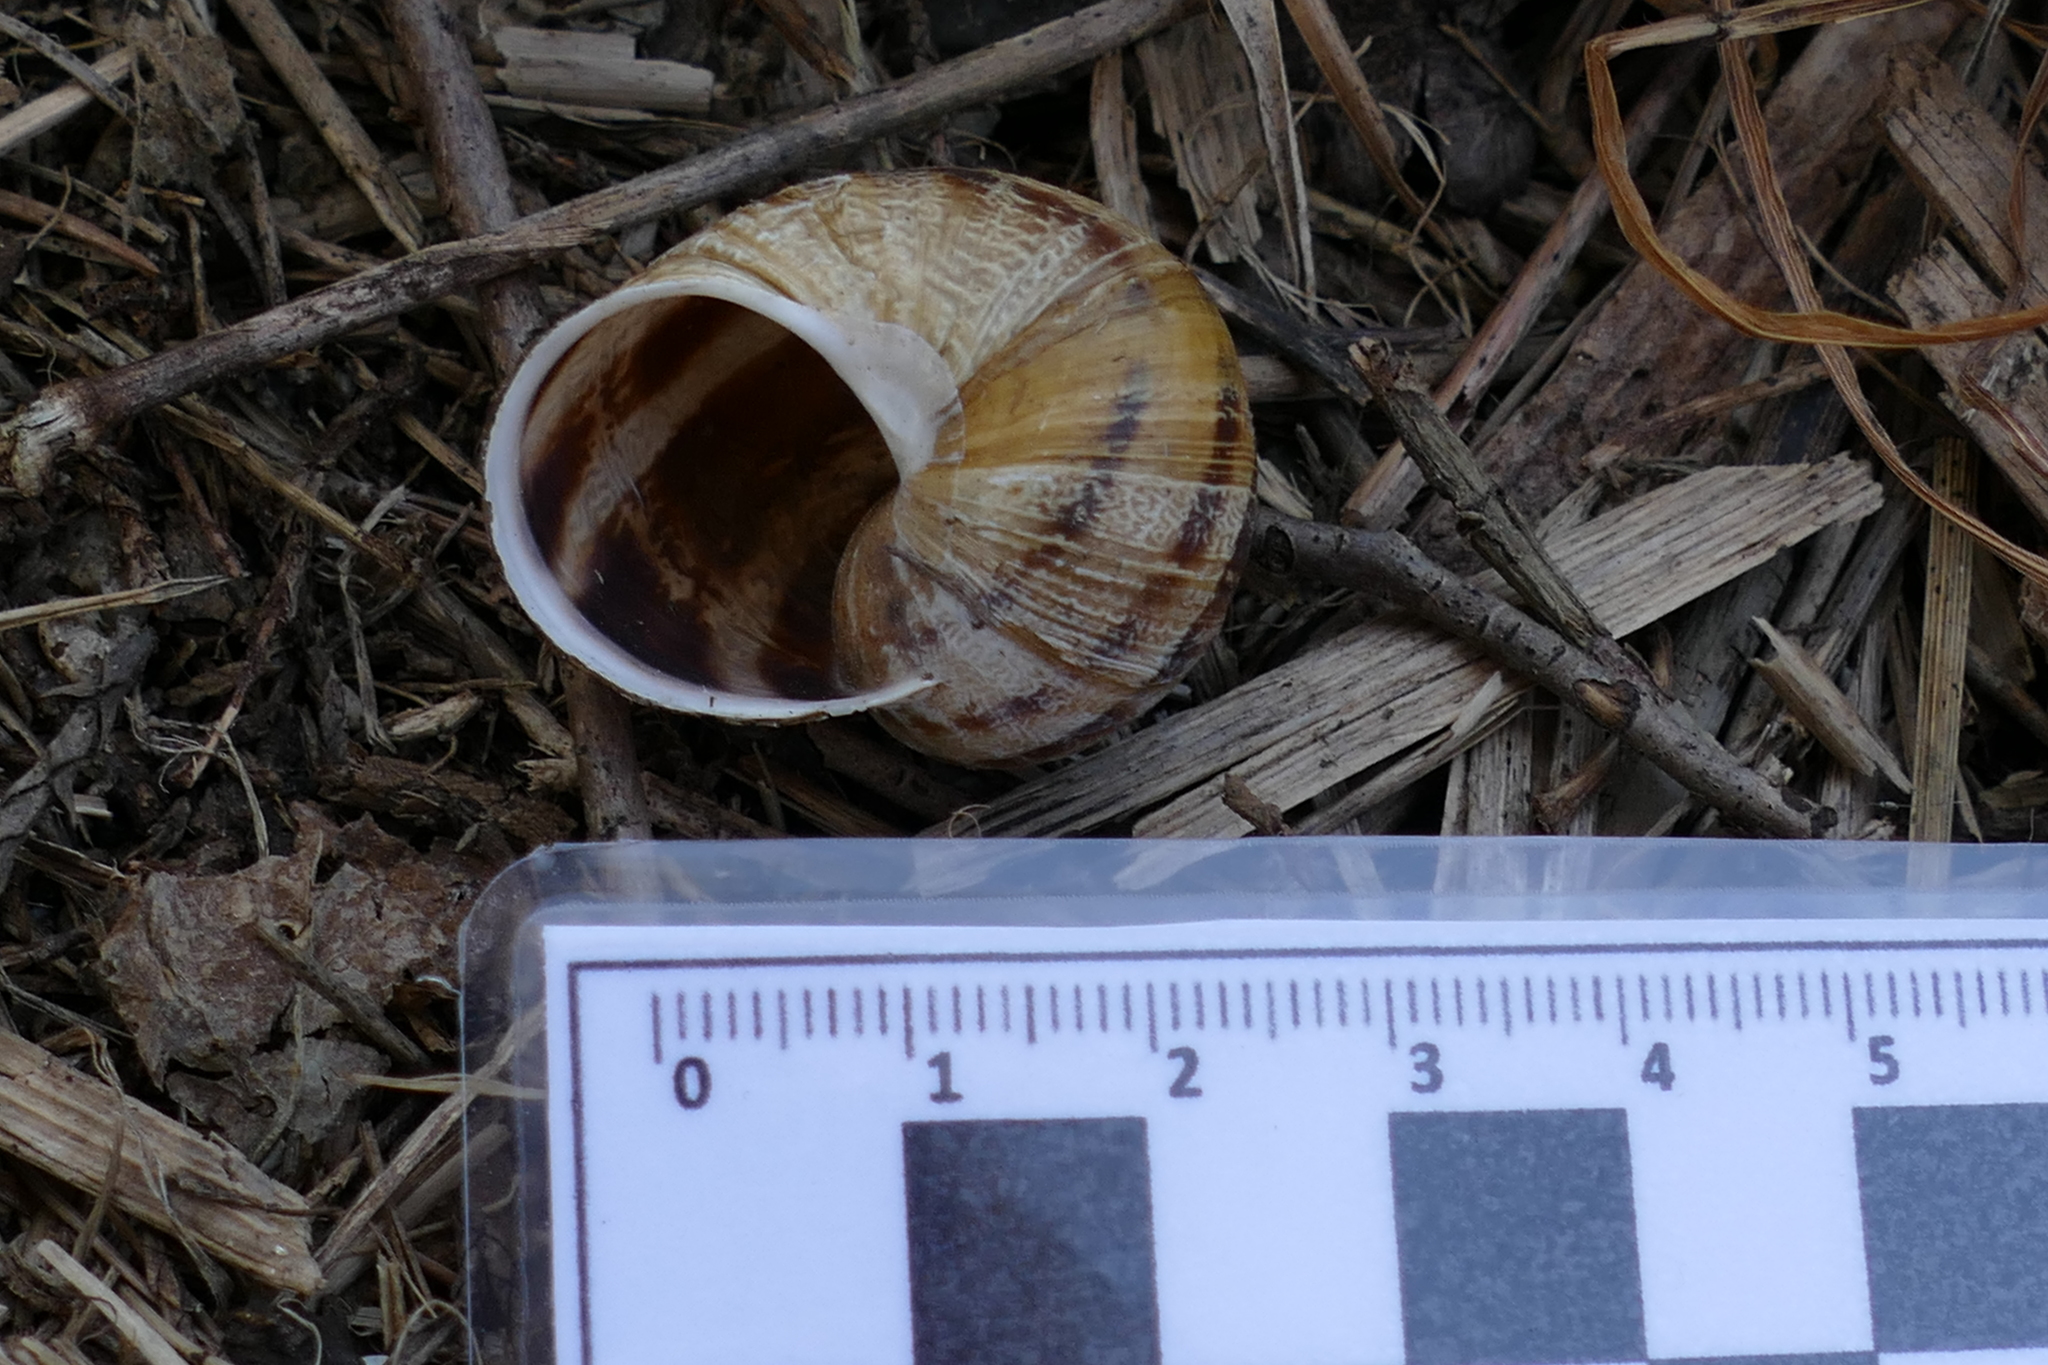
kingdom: Animalia
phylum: Mollusca
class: Gastropoda
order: Stylommatophora
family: Helicidae
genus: Cornu
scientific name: Cornu aspersum
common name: Brown garden snail
